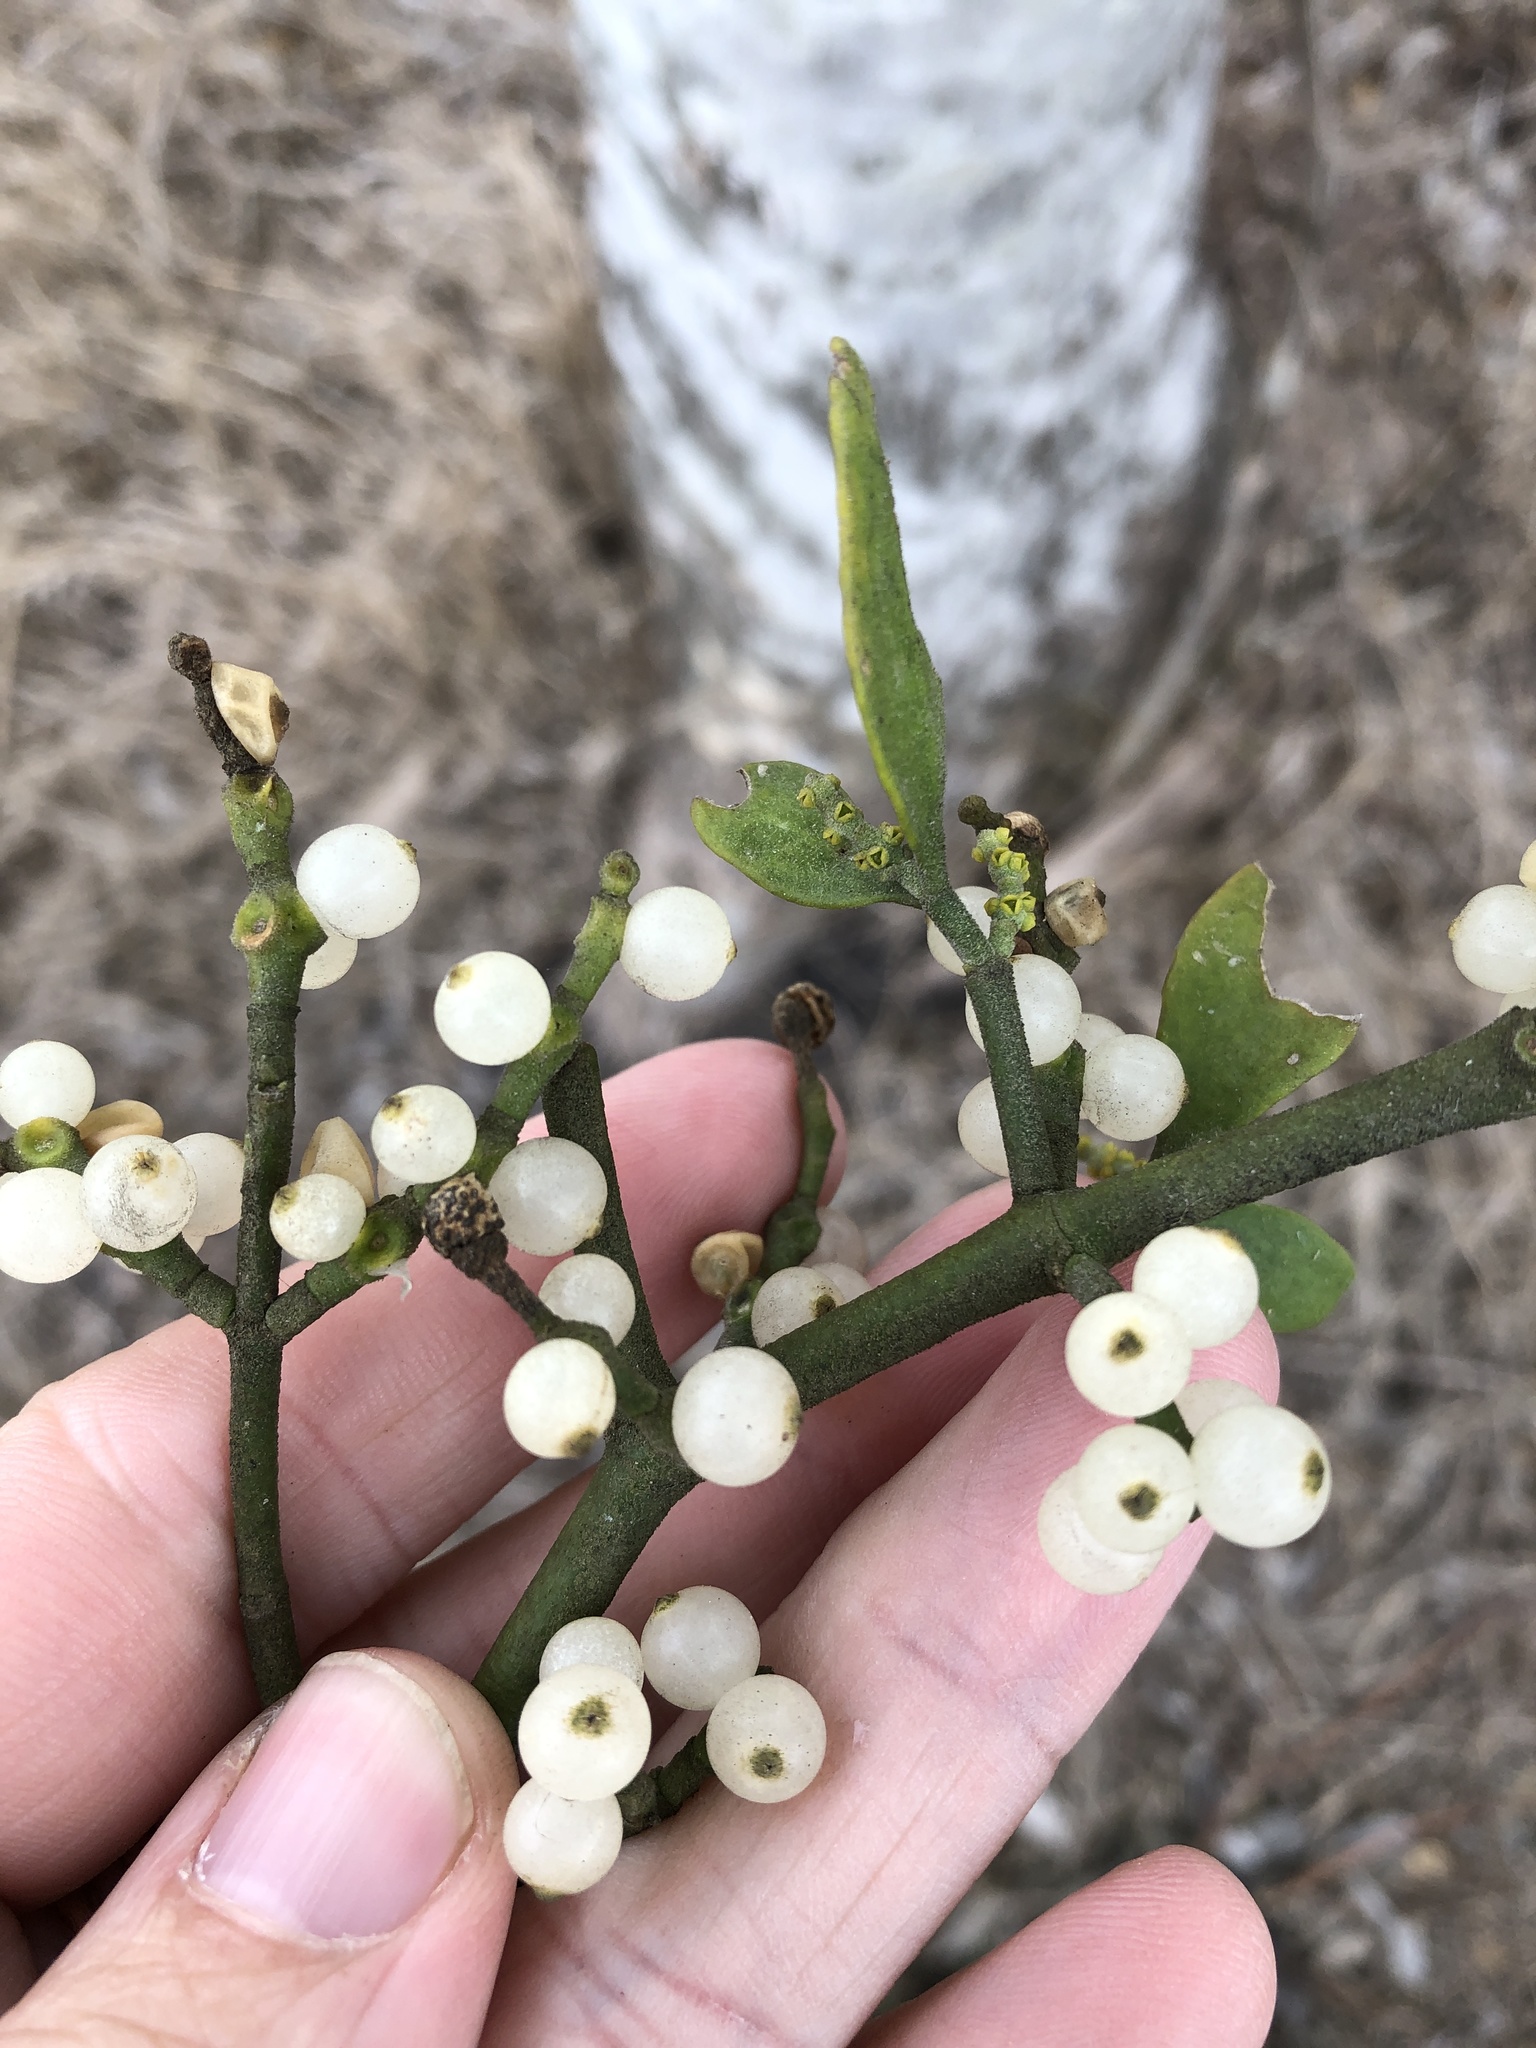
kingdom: Plantae
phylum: Tracheophyta
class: Magnoliopsida
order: Santalales
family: Viscaceae
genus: Phoradendron
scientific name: Phoradendron leucarpum
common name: Pacific mistletoe
